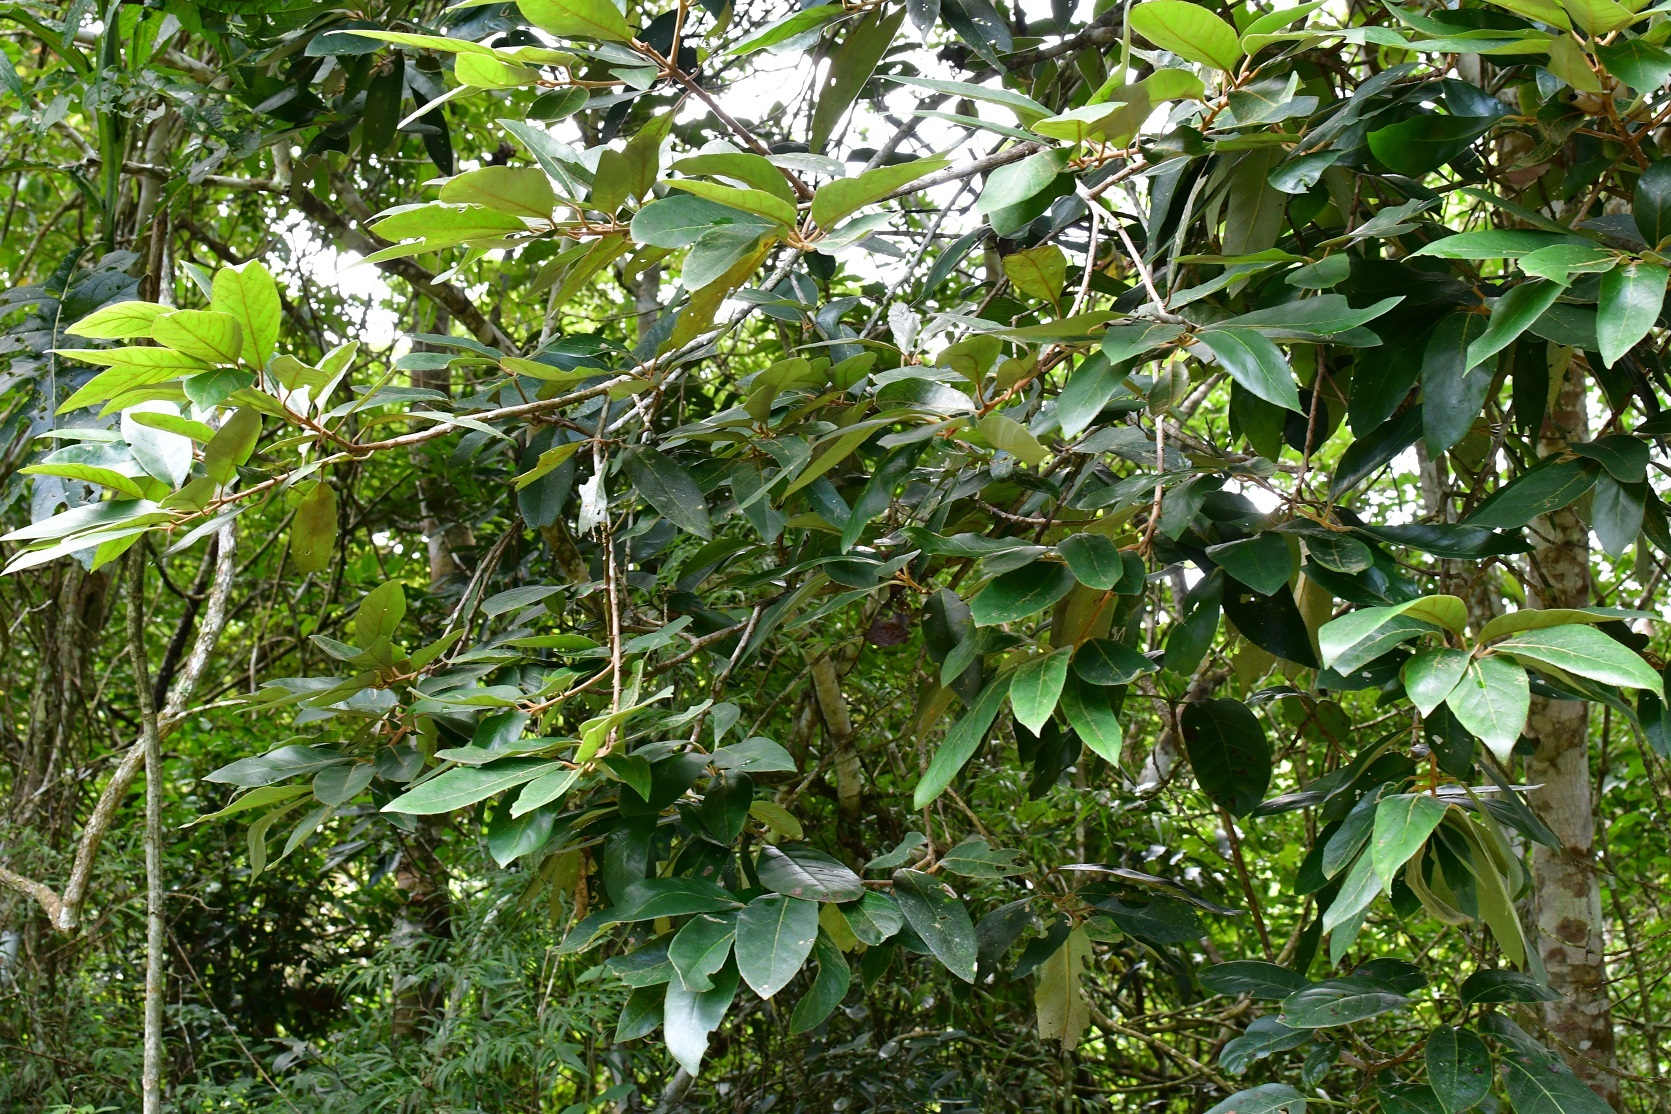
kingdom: Plantae
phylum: Tracheophyta
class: Magnoliopsida
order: Ericales
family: Styracaceae
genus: Styrax
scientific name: Styrax argenteus
